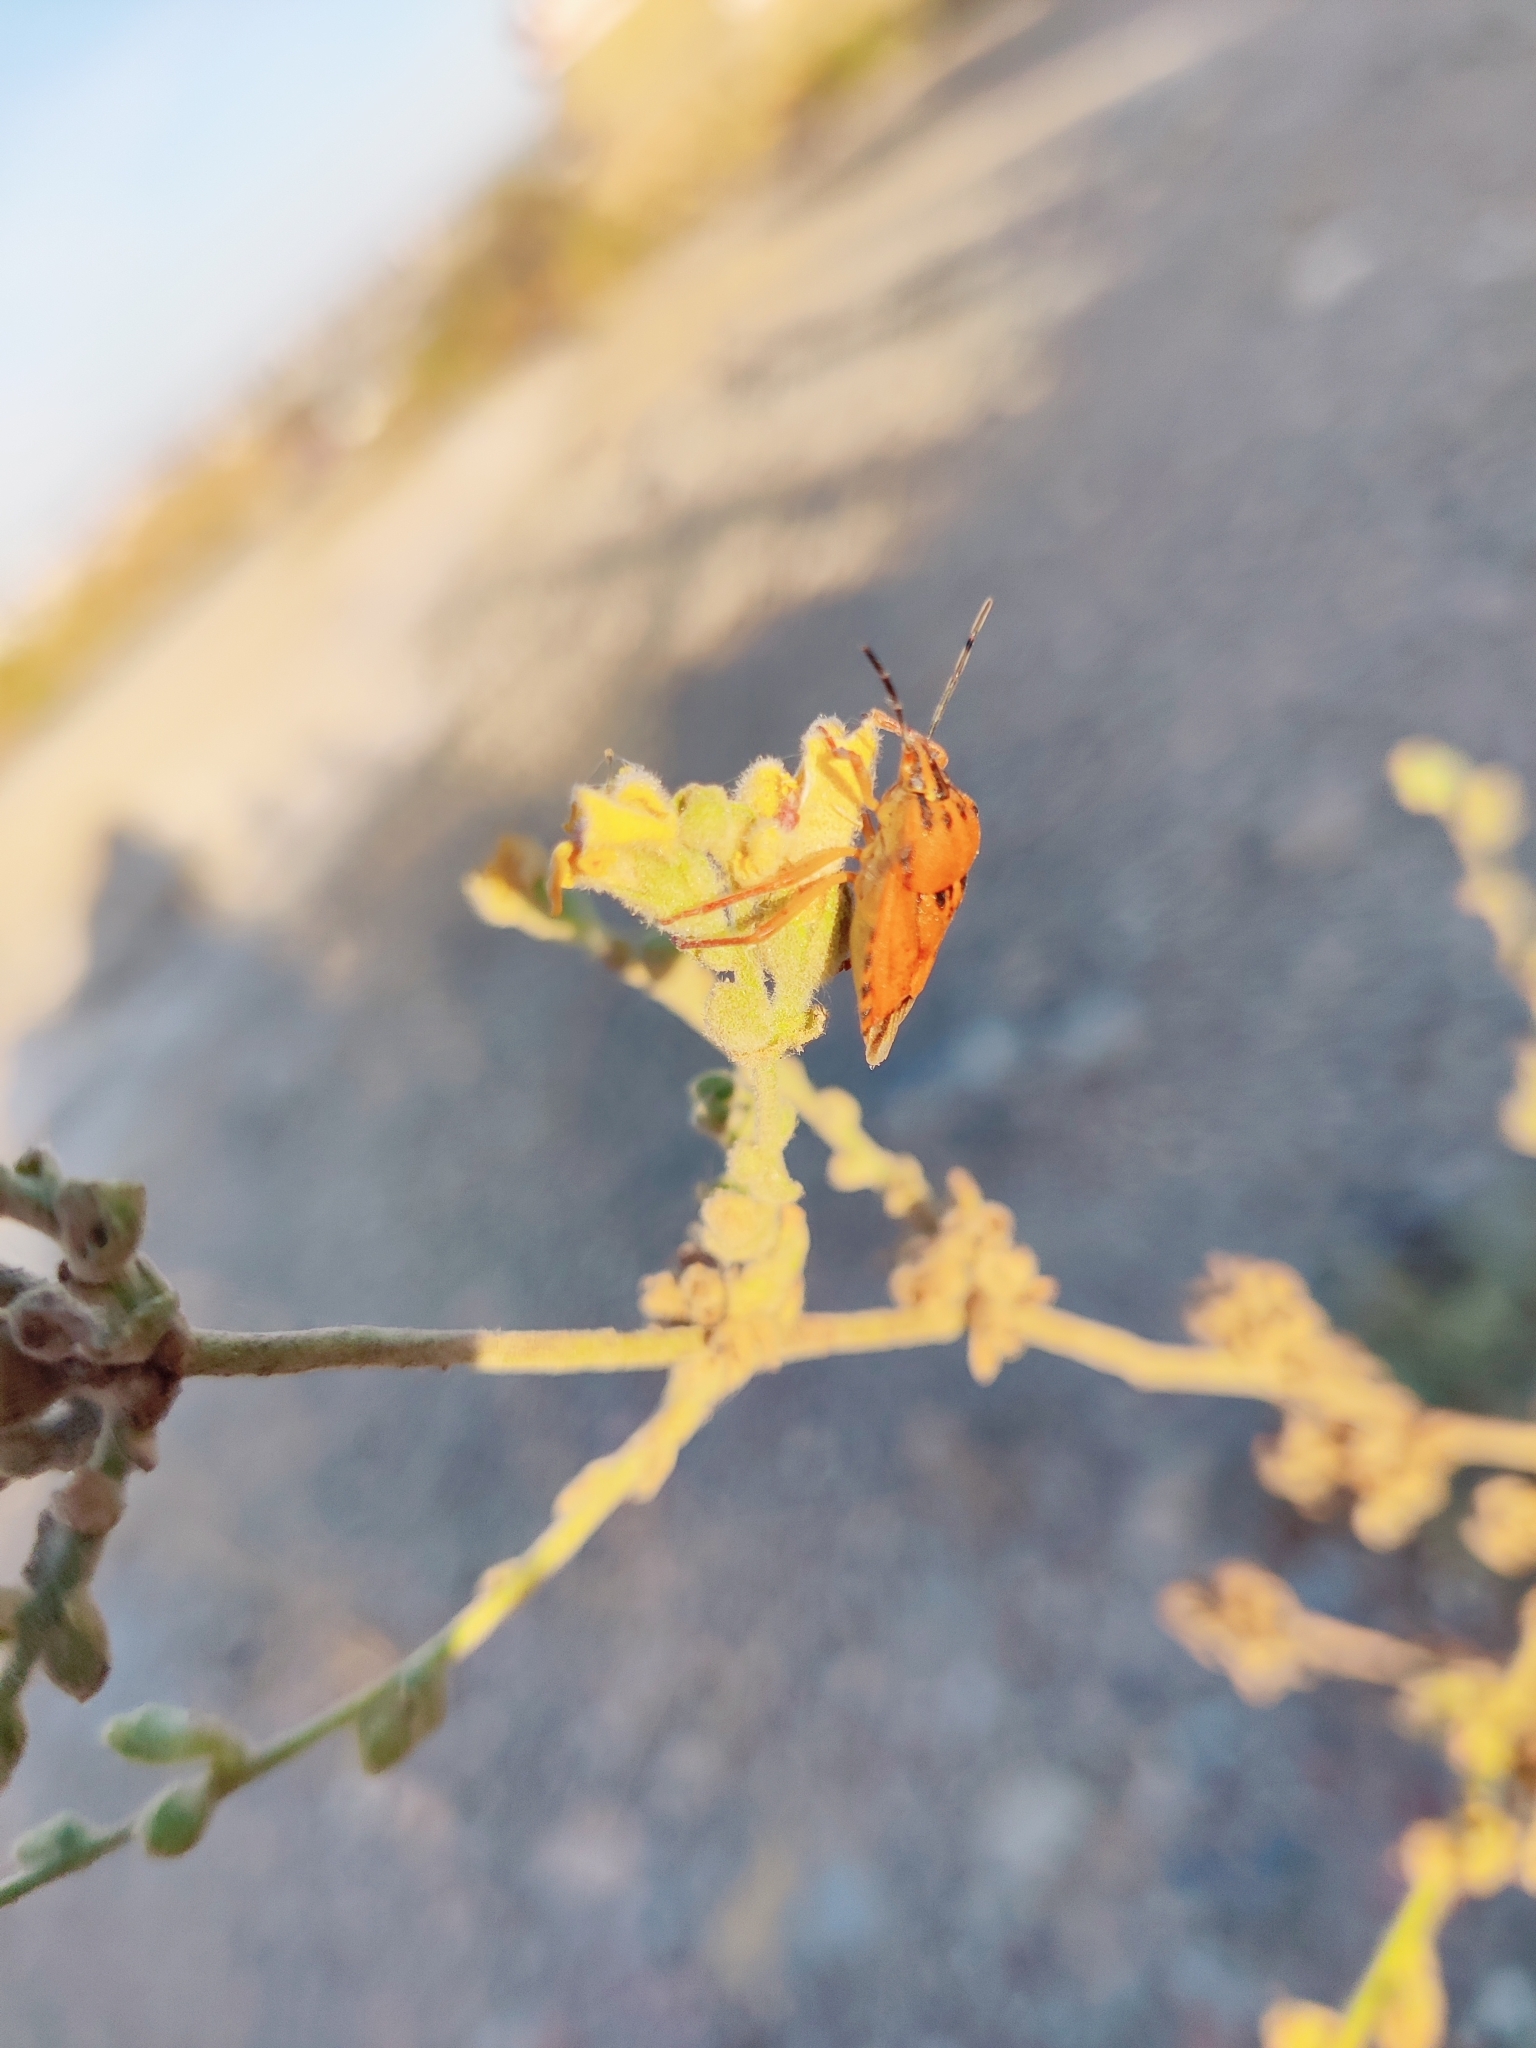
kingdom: Animalia
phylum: Arthropoda
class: Insecta
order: Hemiptera
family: Pentatomidae
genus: Carpocoris
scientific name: Carpocoris mediterraneus
